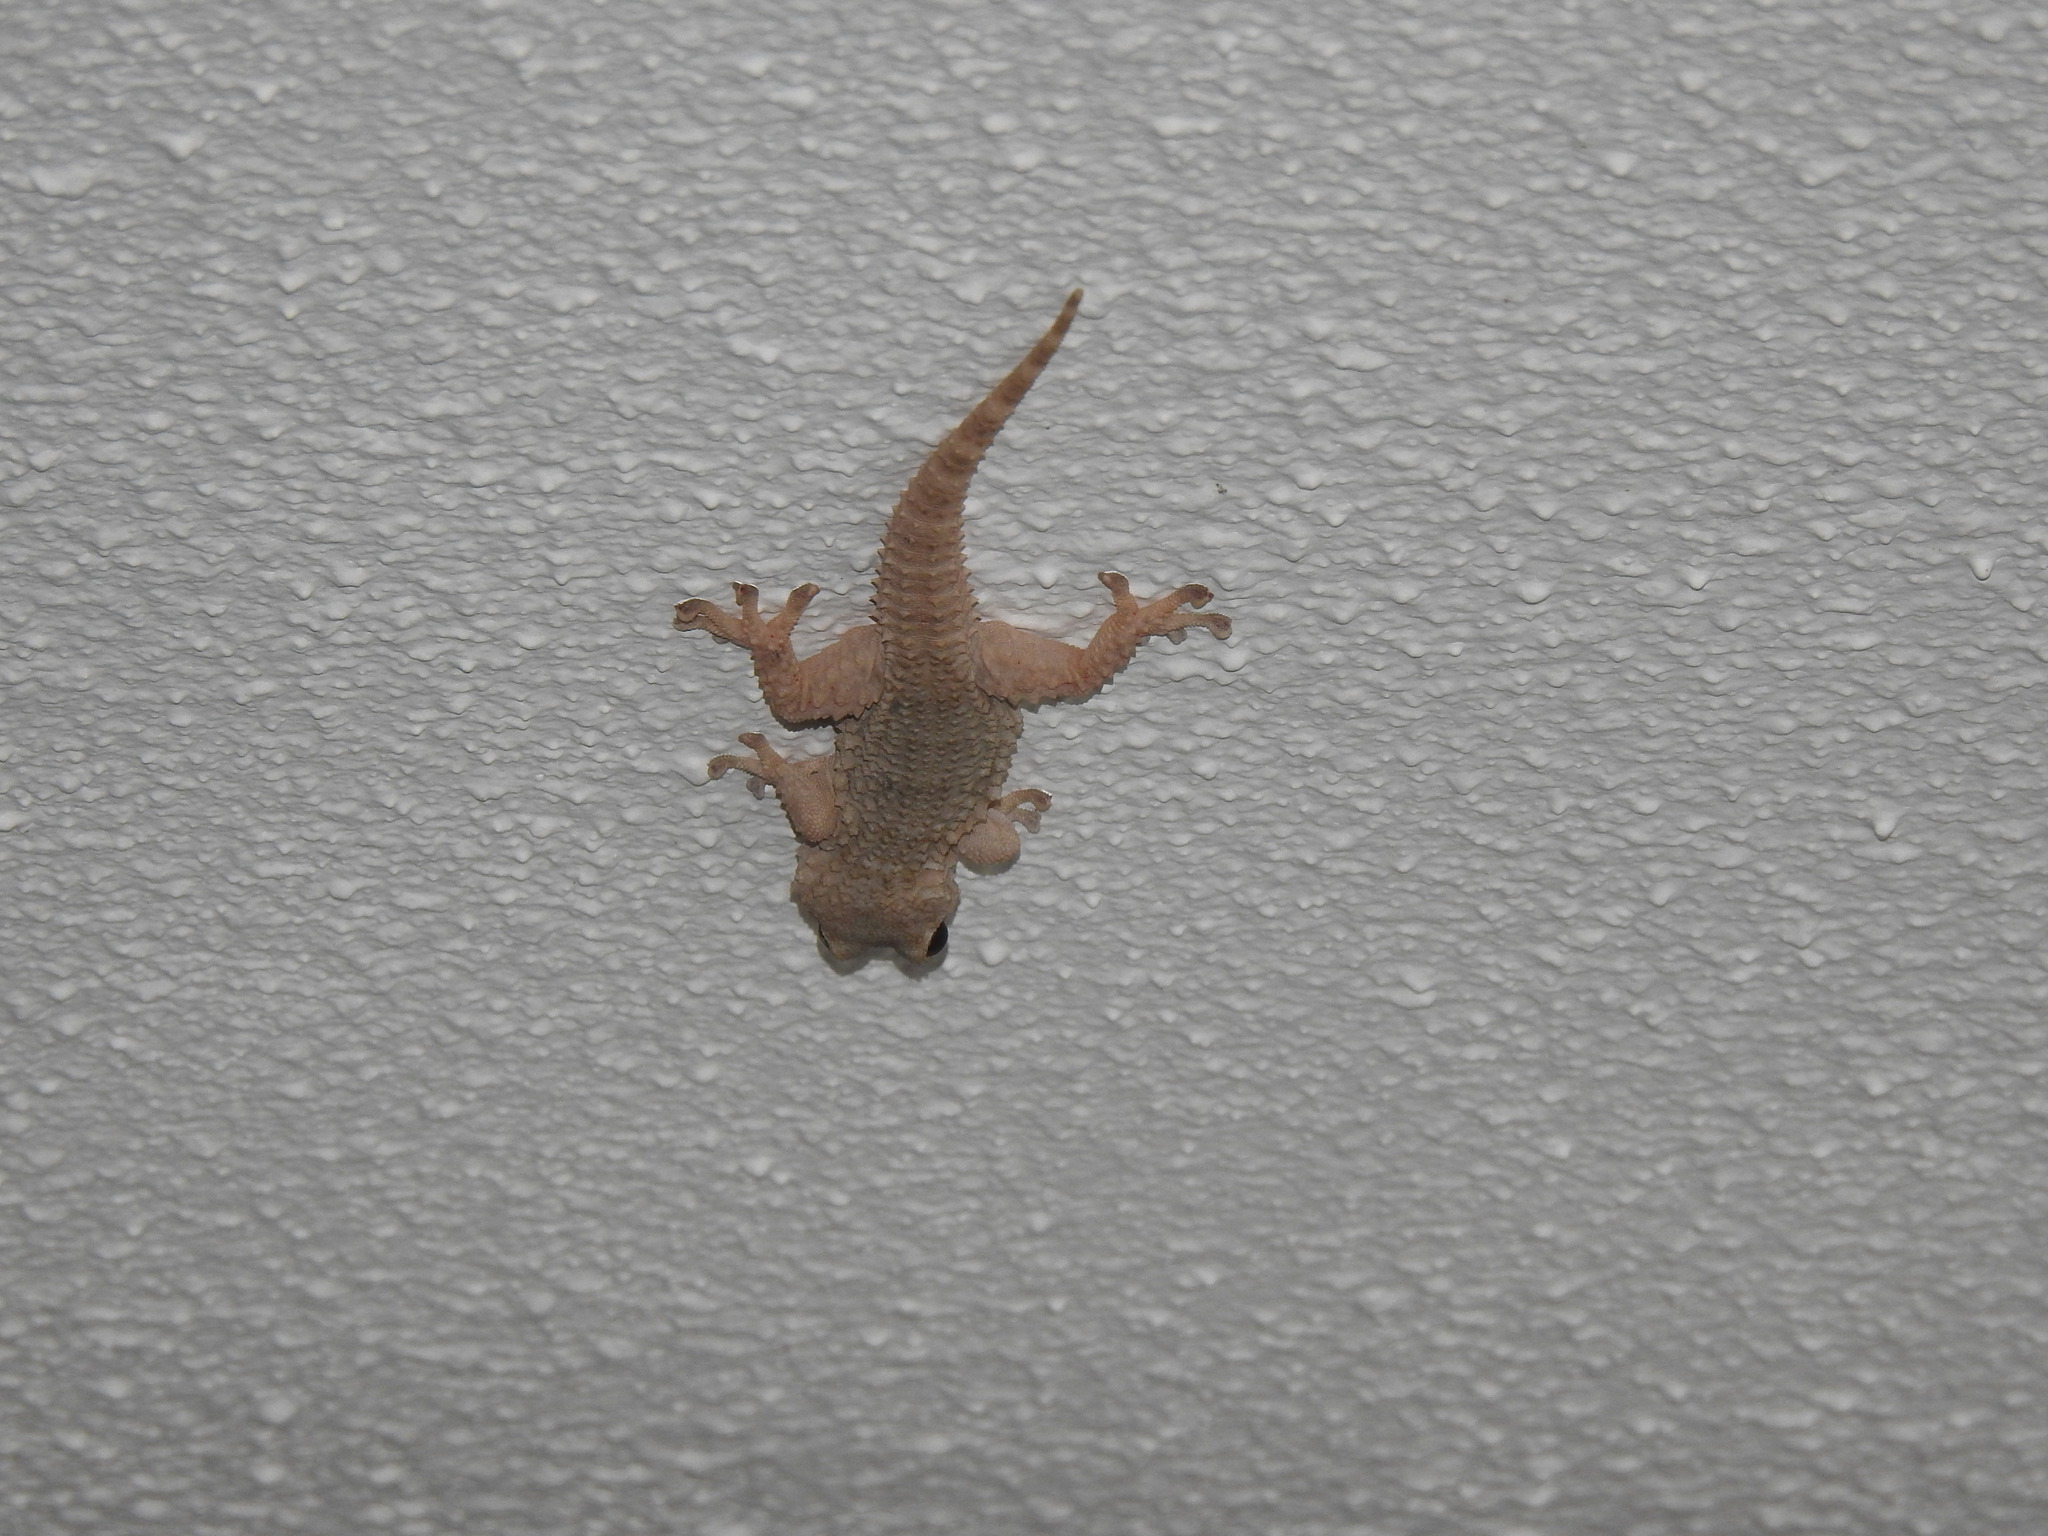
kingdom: Animalia
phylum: Chordata
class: Squamata
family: Phyllodactylidae
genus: Tarentola
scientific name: Tarentola mauritanica
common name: Moorish gecko
